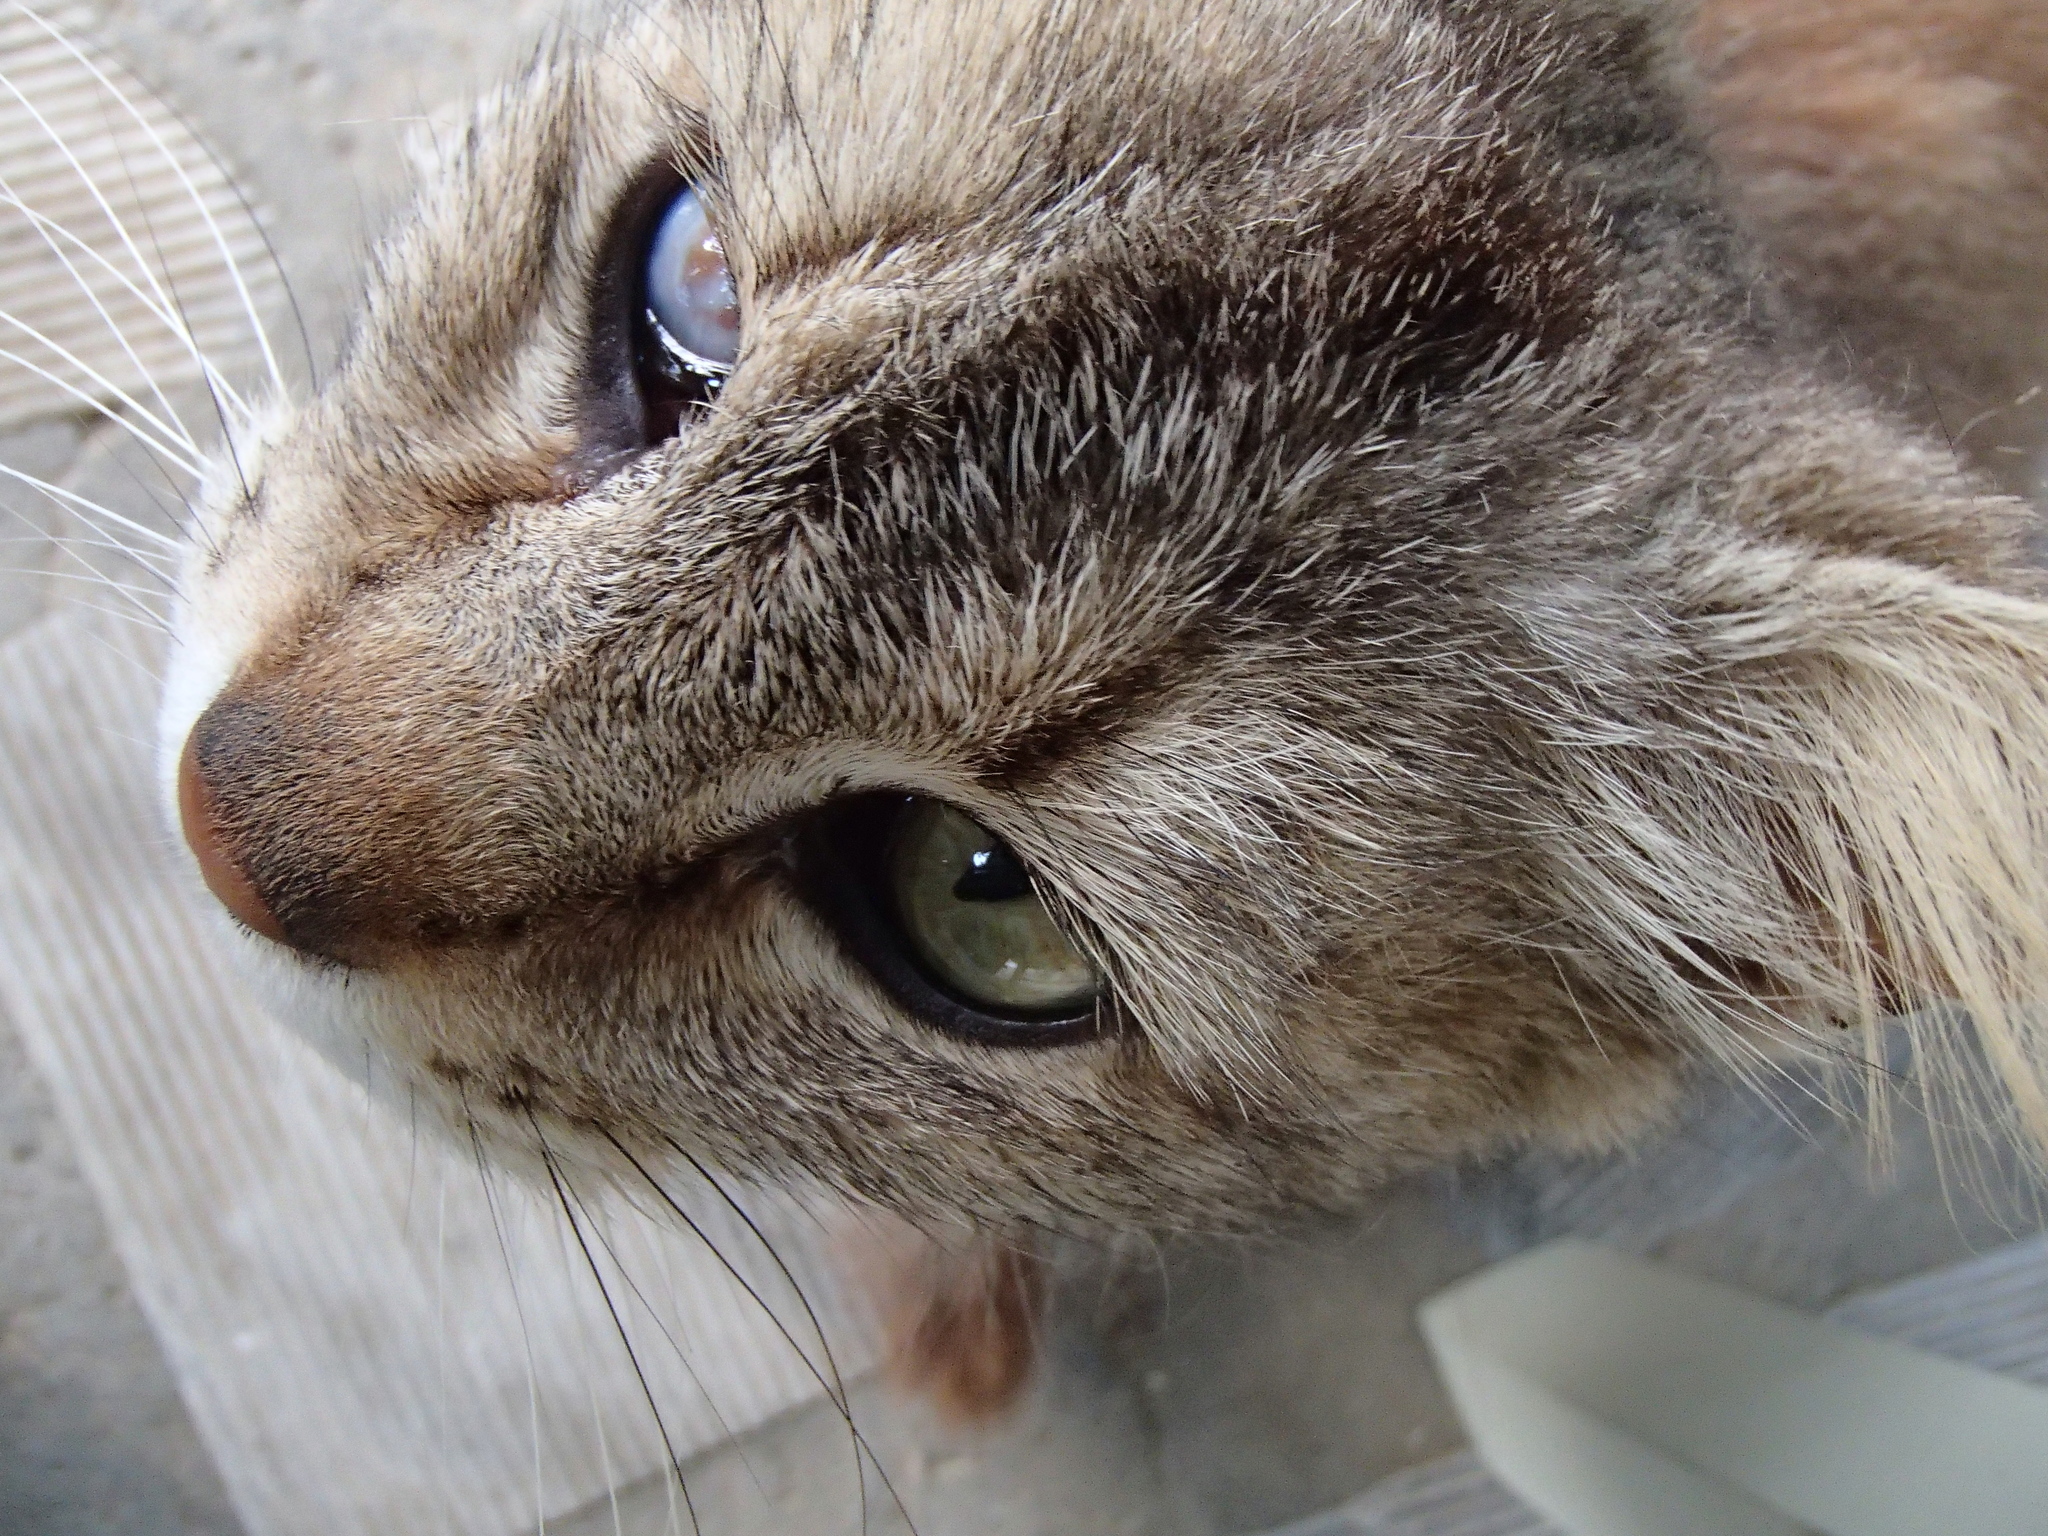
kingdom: Animalia
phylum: Chordata
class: Mammalia
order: Carnivora
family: Felidae
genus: Felis
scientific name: Felis catus
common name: Domestic cat
